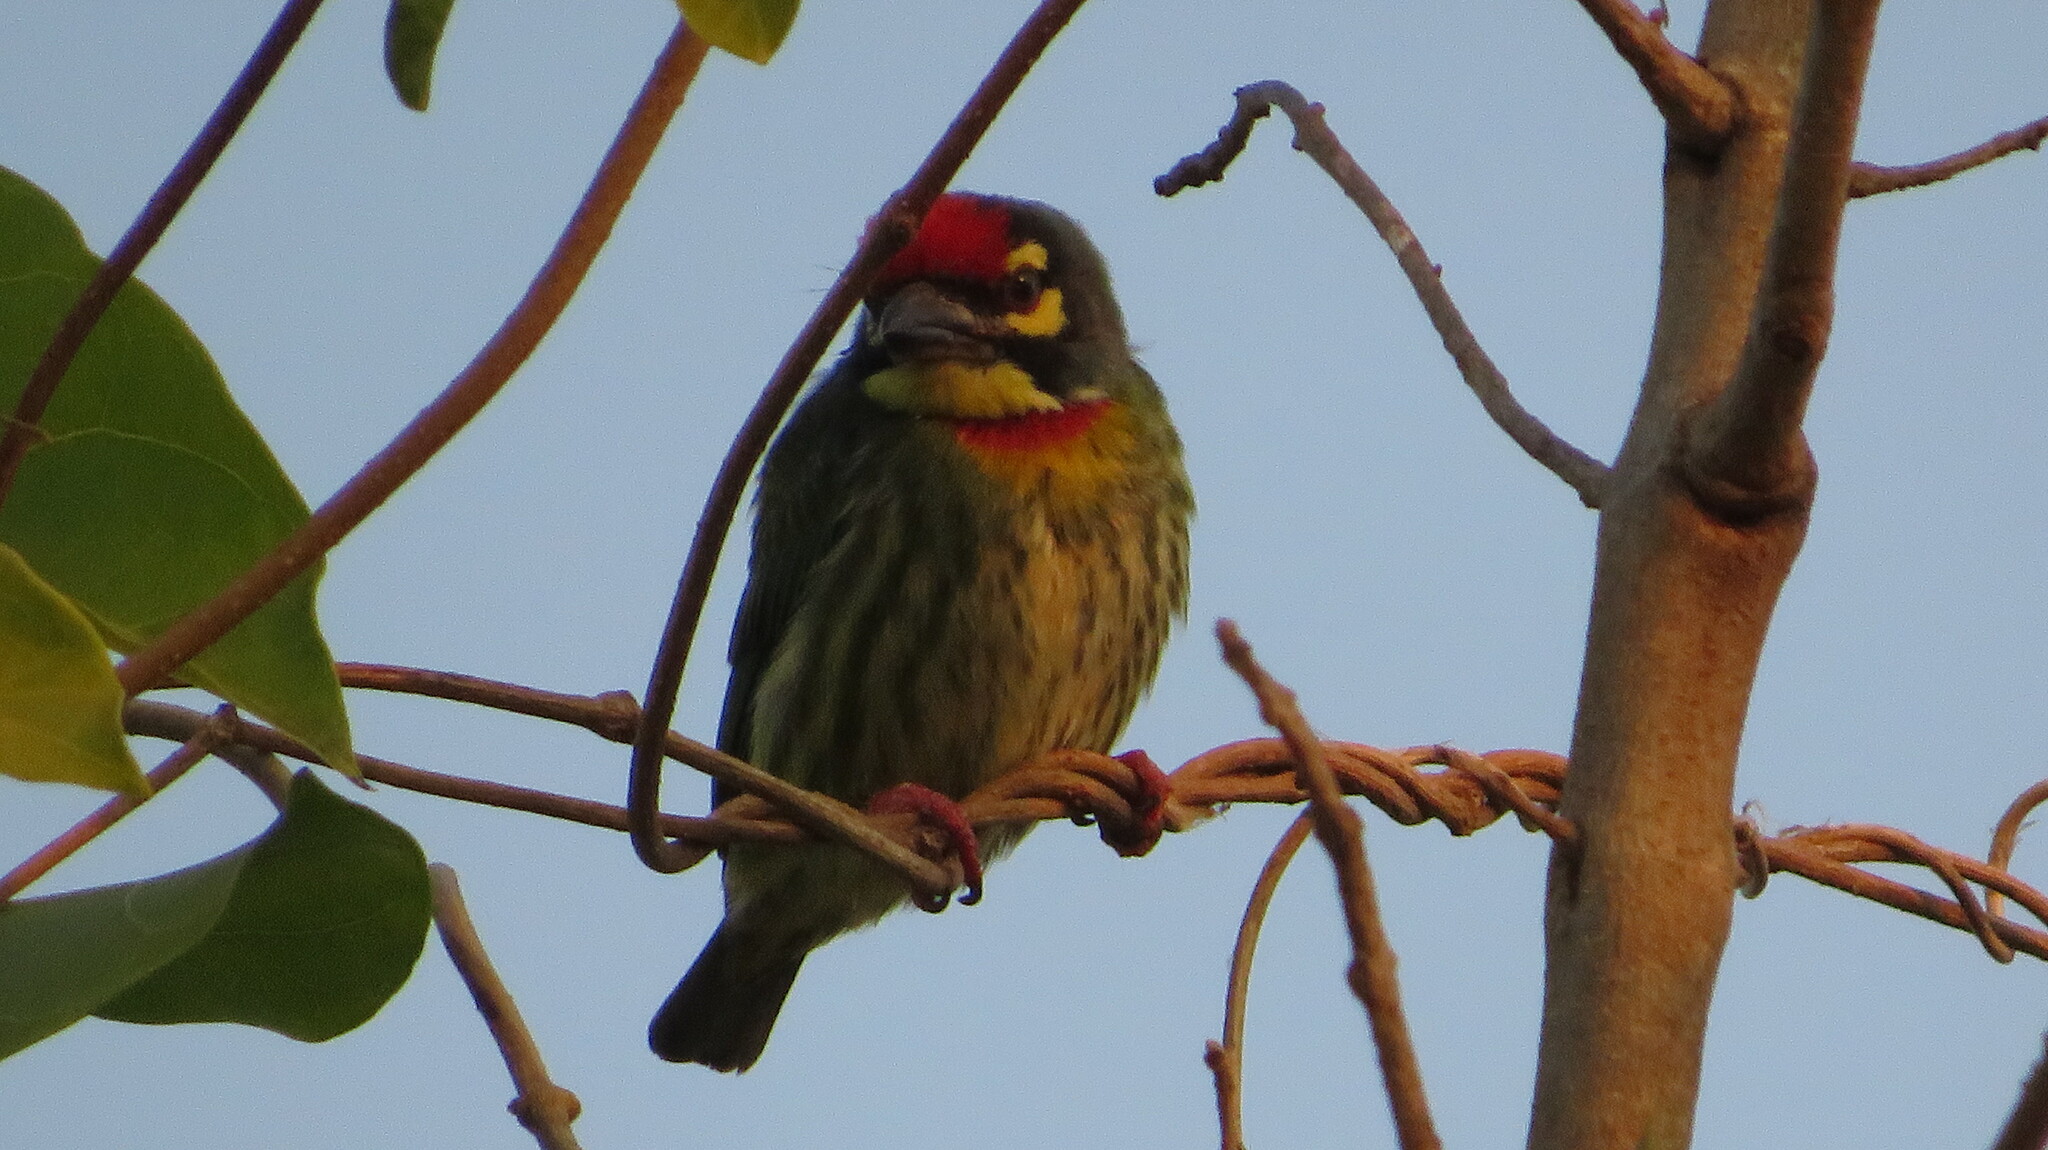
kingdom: Animalia
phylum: Chordata
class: Aves
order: Piciformes
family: Megalaimidae
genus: Psilopogon
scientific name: Psilopogon haemacephalus
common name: Coppersmith barbet
